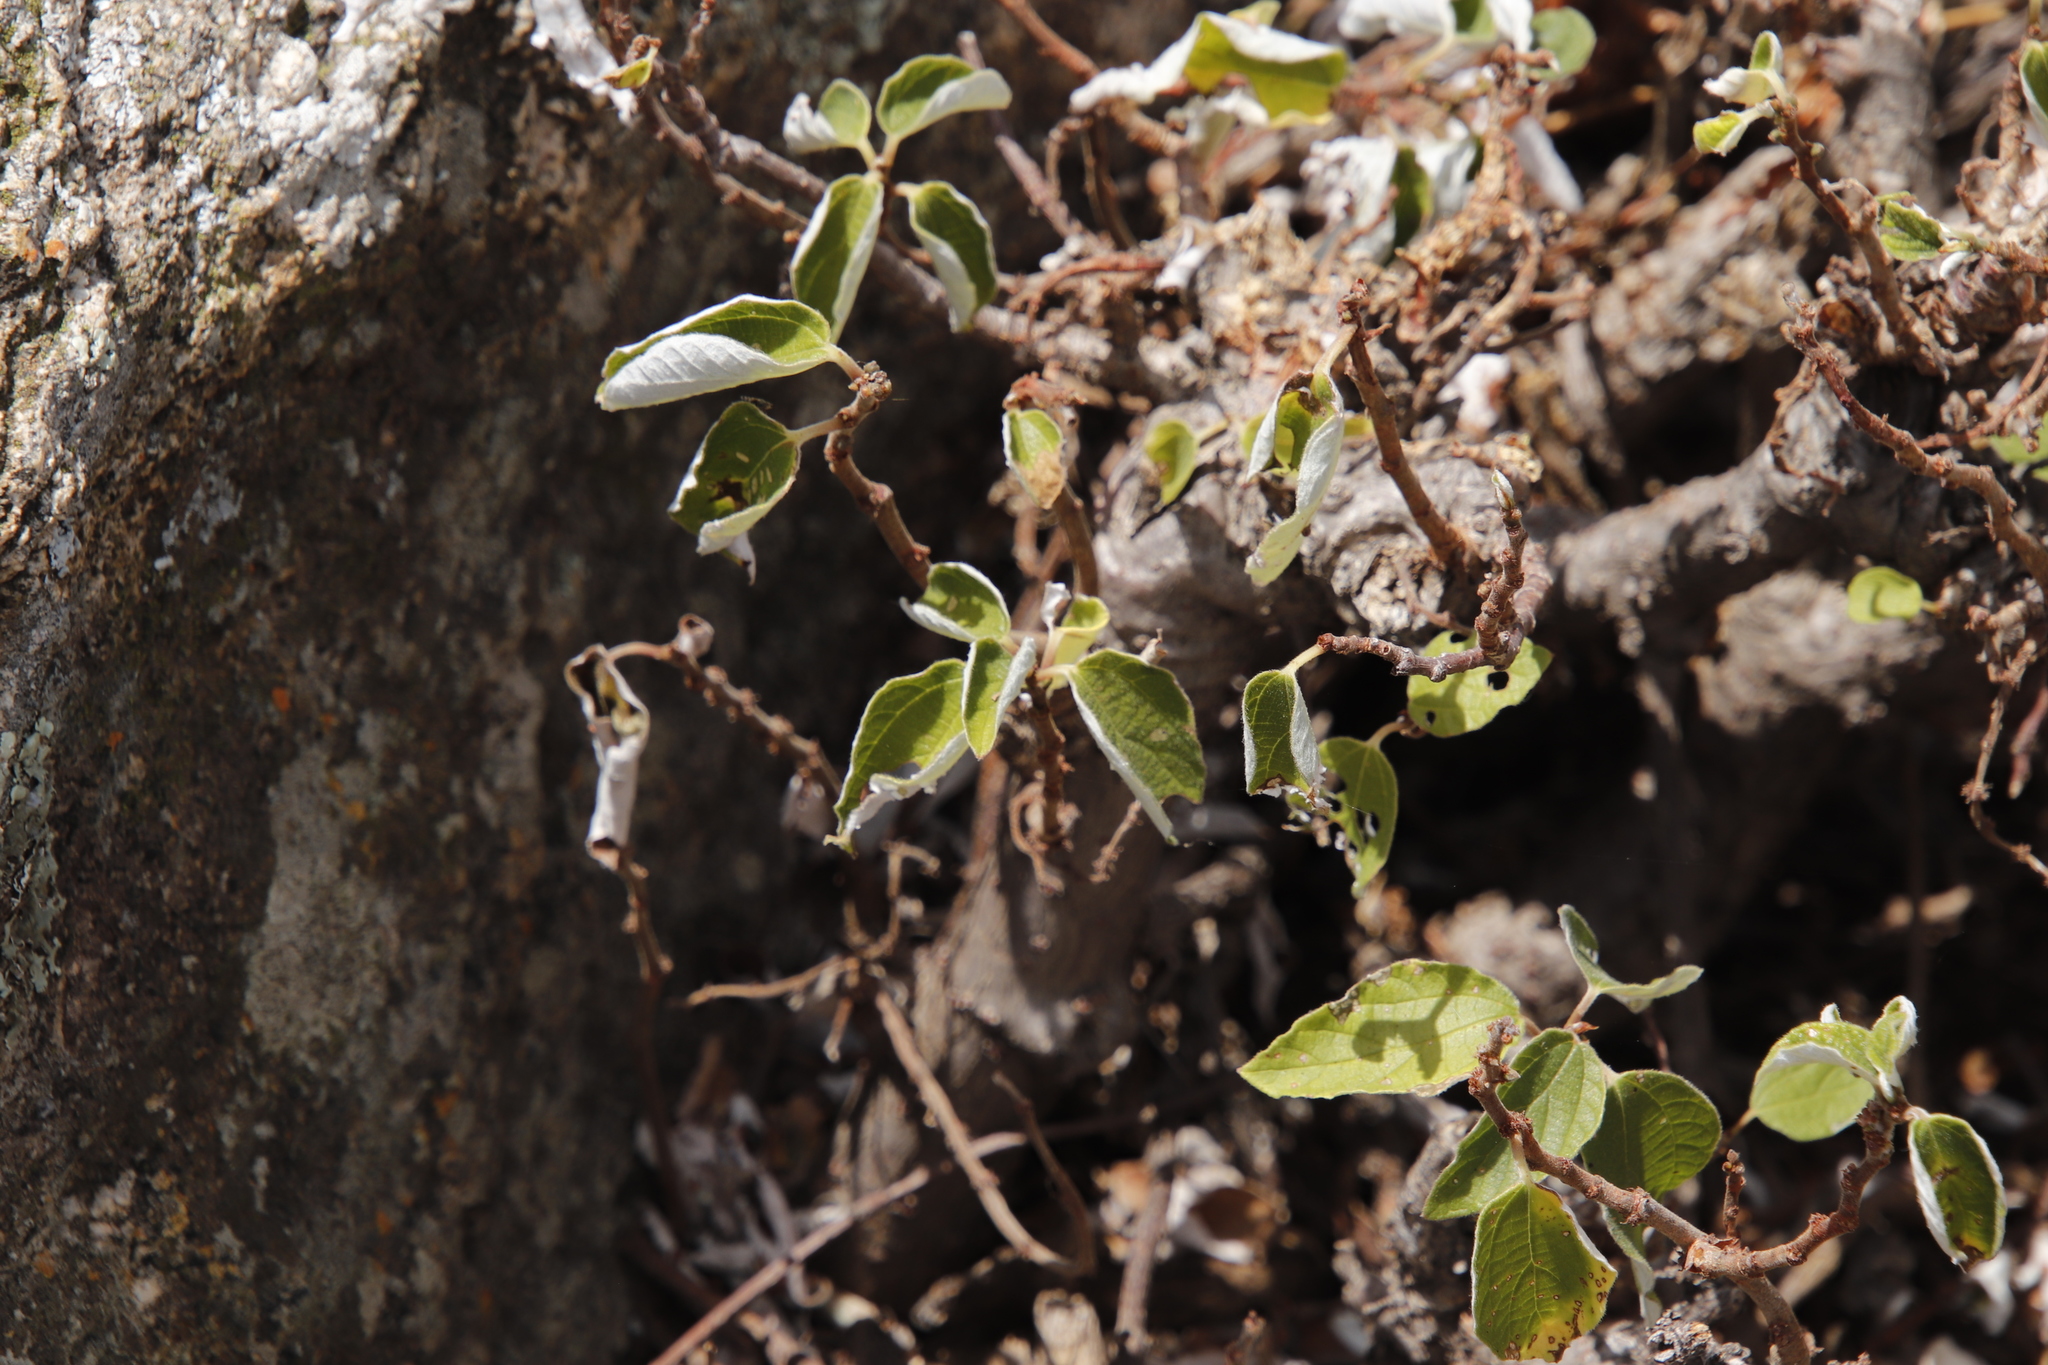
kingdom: Plantae
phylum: Tracheophyta
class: Magnoliopsida
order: Rosales
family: Urticaceae
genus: Pouzolzia
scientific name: Pouzolzia mixta
